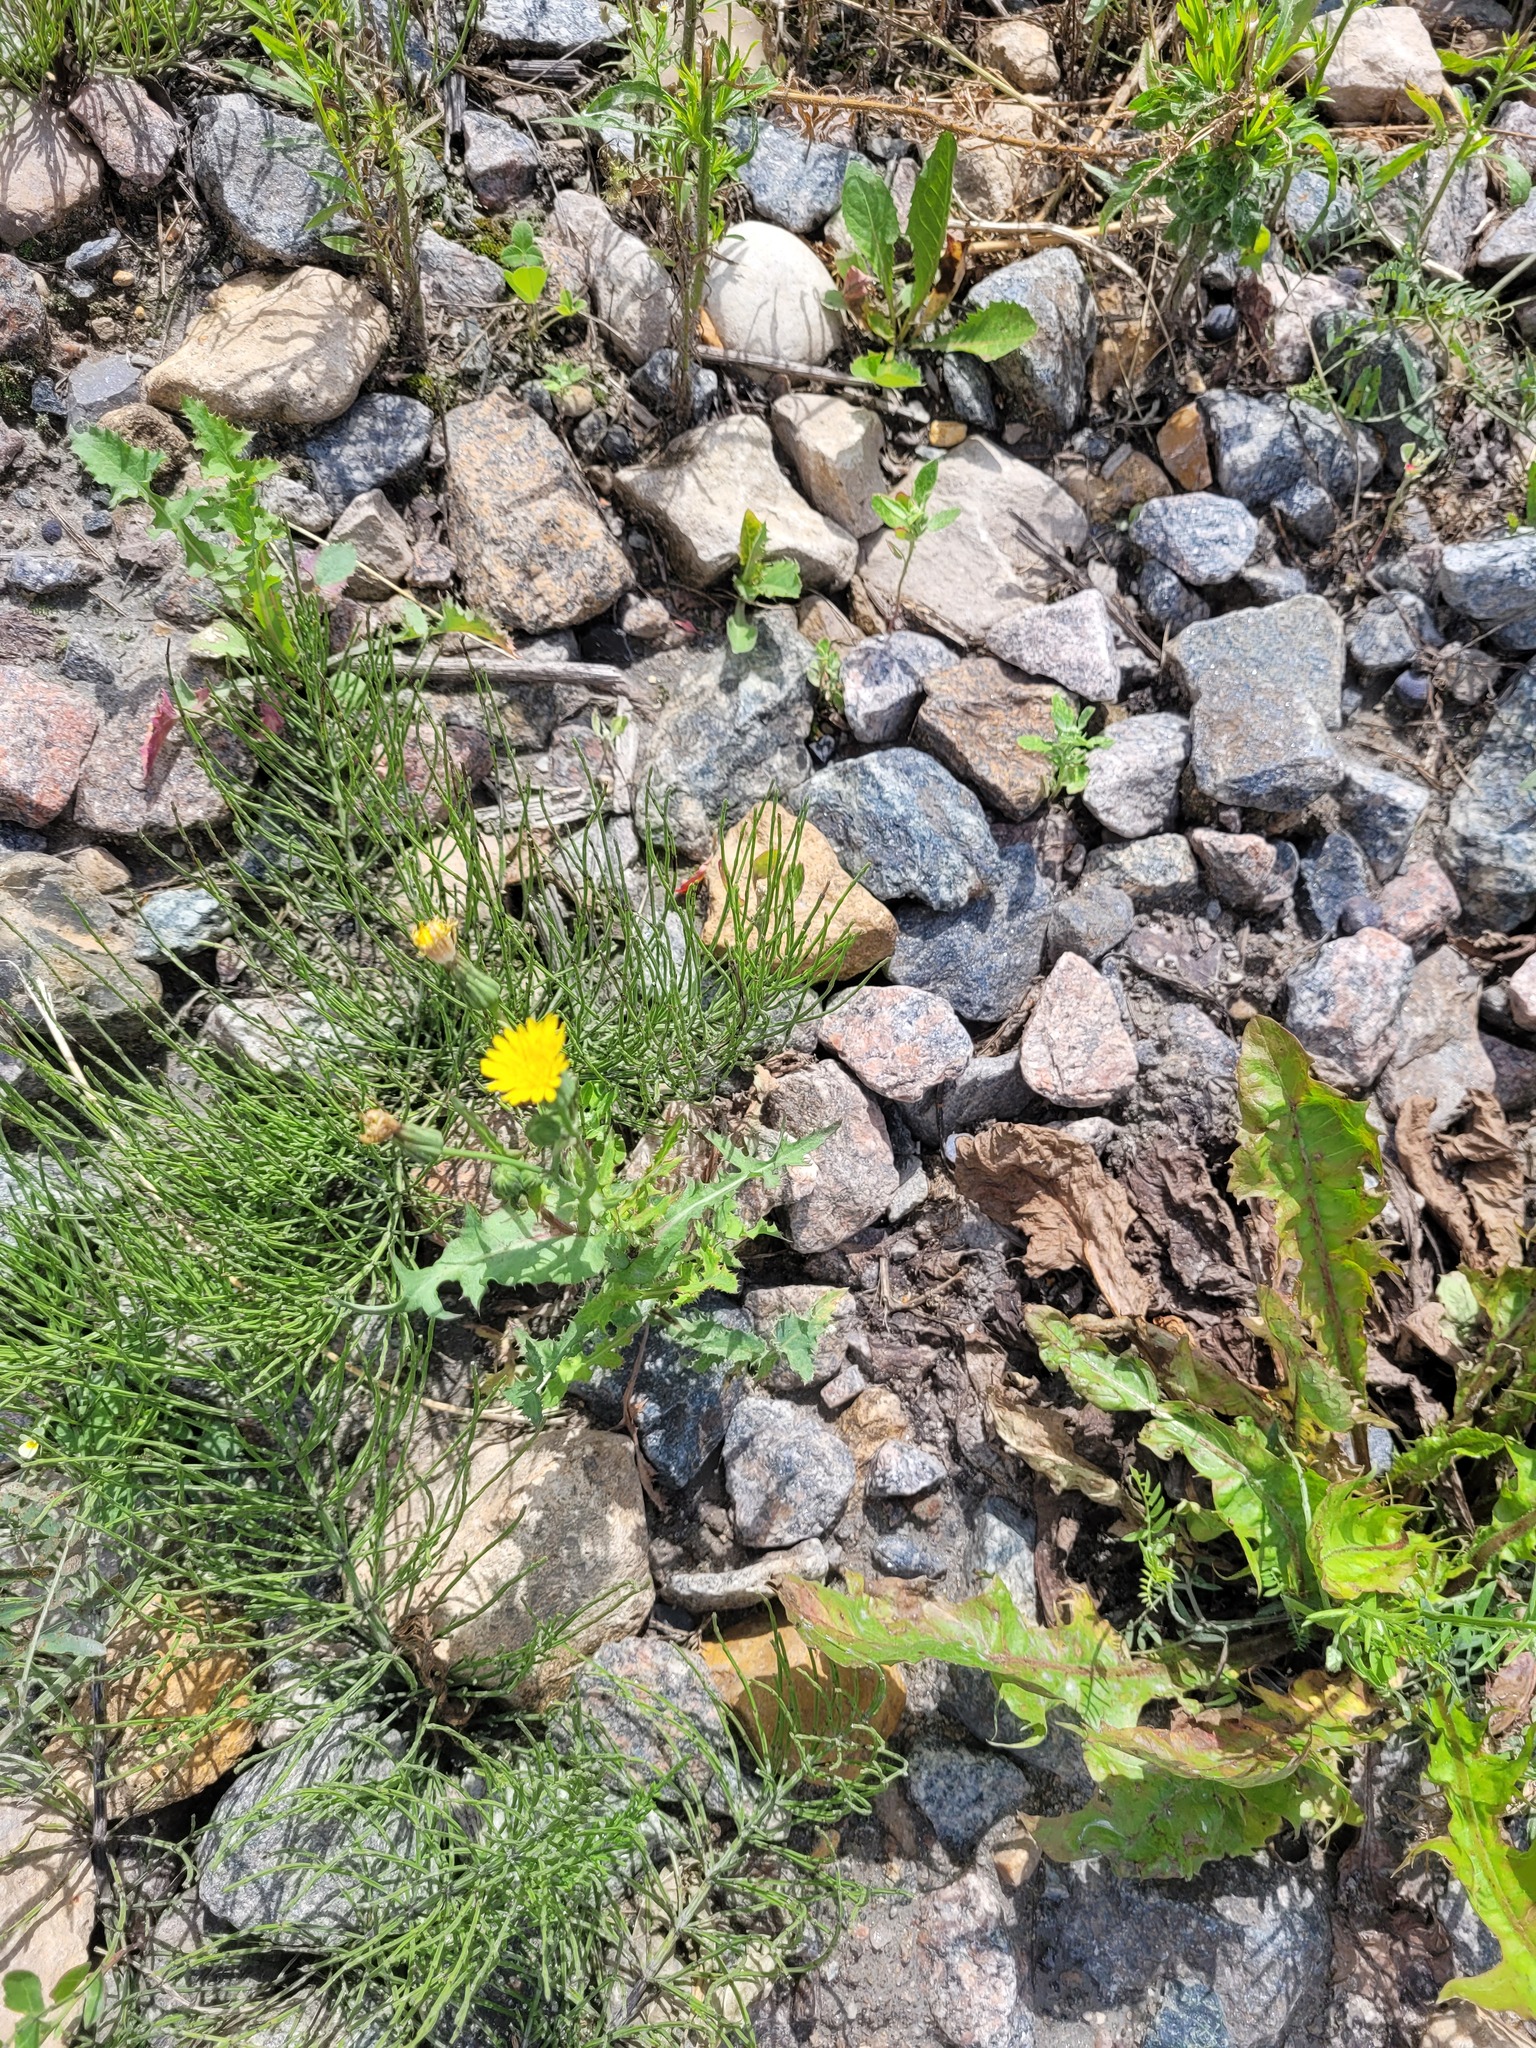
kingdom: Plantae
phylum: Tracheophyta
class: Magnoliopsida
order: Asterales
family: Asteraceae
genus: Sonchus
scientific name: Sonchus oleraceus
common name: Common sowthistle
